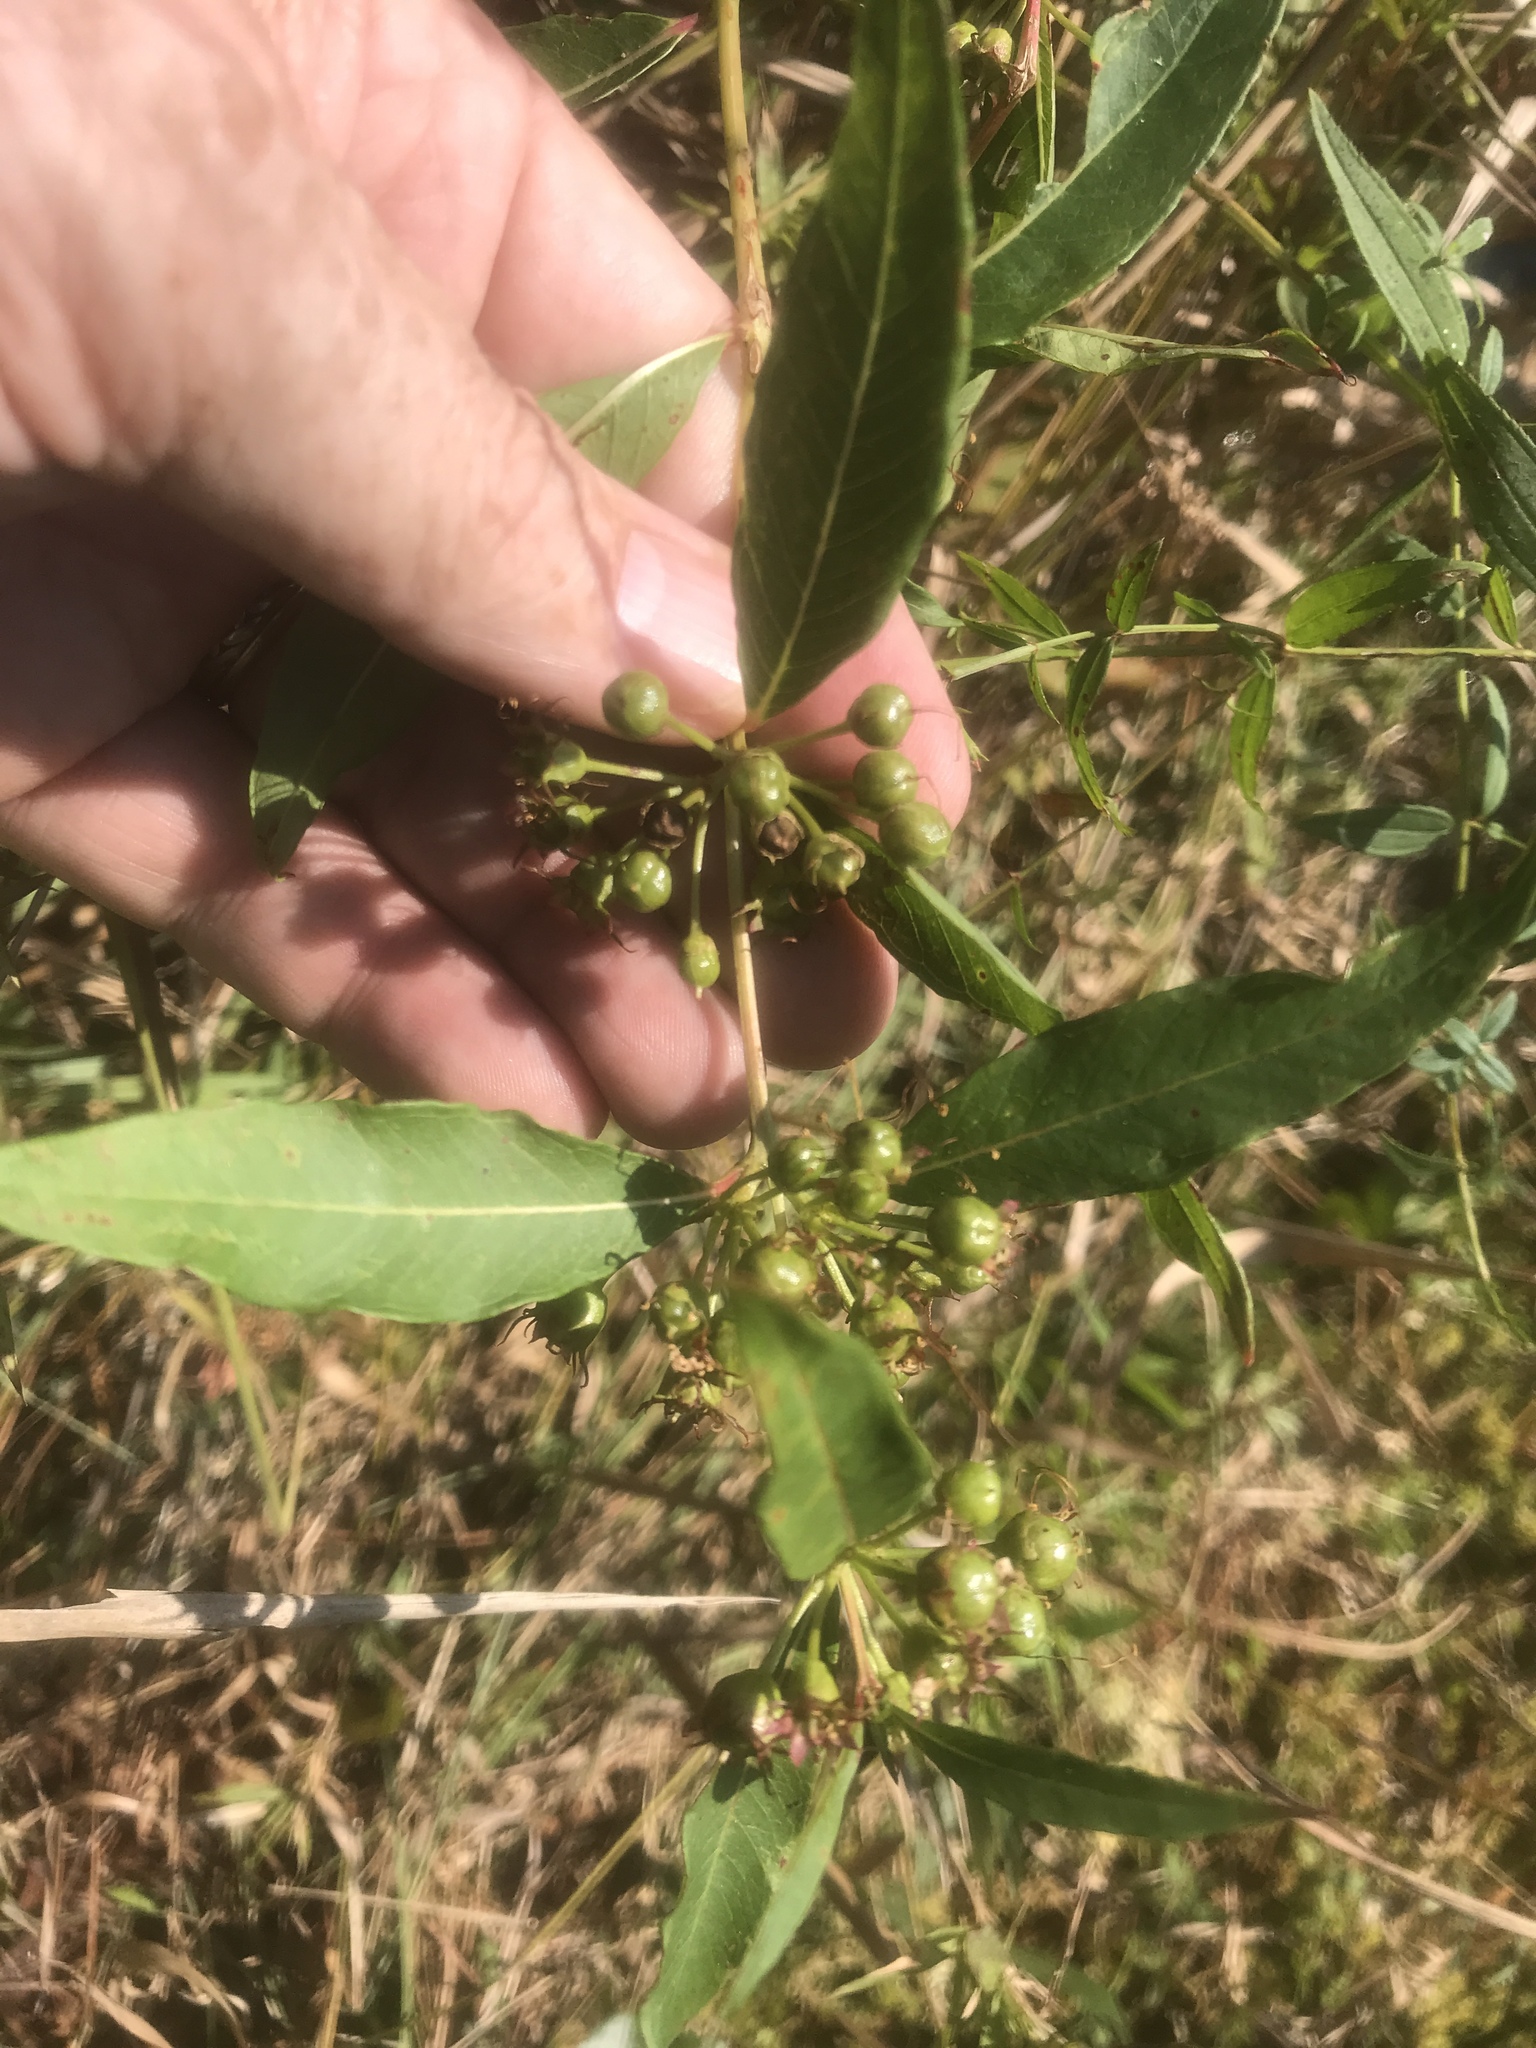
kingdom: Plantae
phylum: Tracheophyta
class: Magnoliopsida
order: Myrtales
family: Lythraceae
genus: Decodon
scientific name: Decodon verticillatus
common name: Hairy swamp loosestrife
